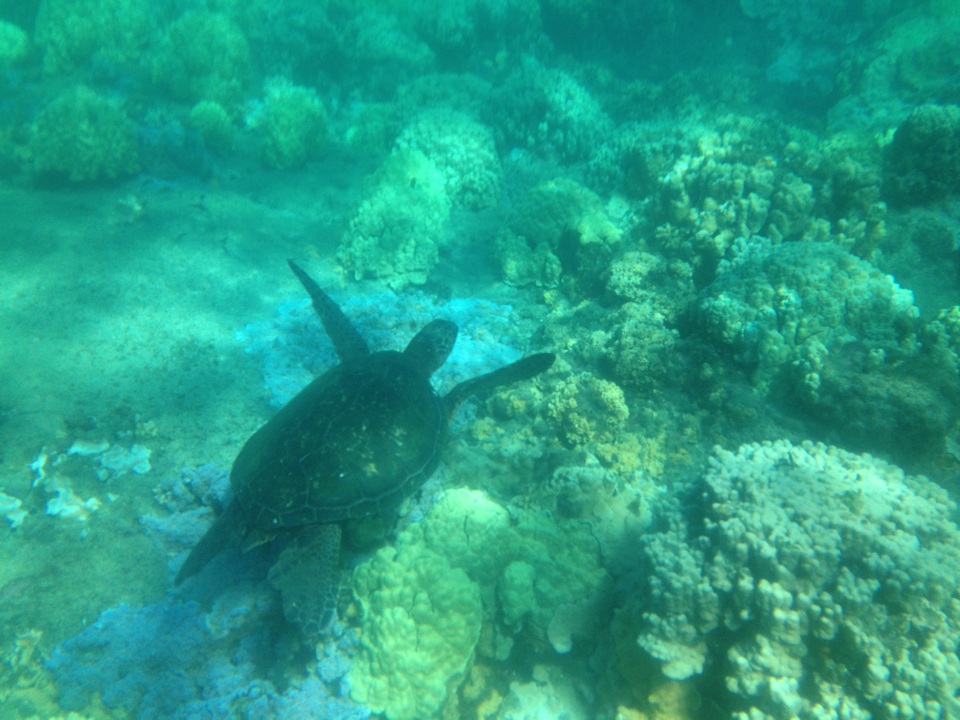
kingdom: Animalia
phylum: Chordata
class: Testudines
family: Cheloniidae
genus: Chelonia
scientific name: Chelonia mydas
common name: Green turtle
